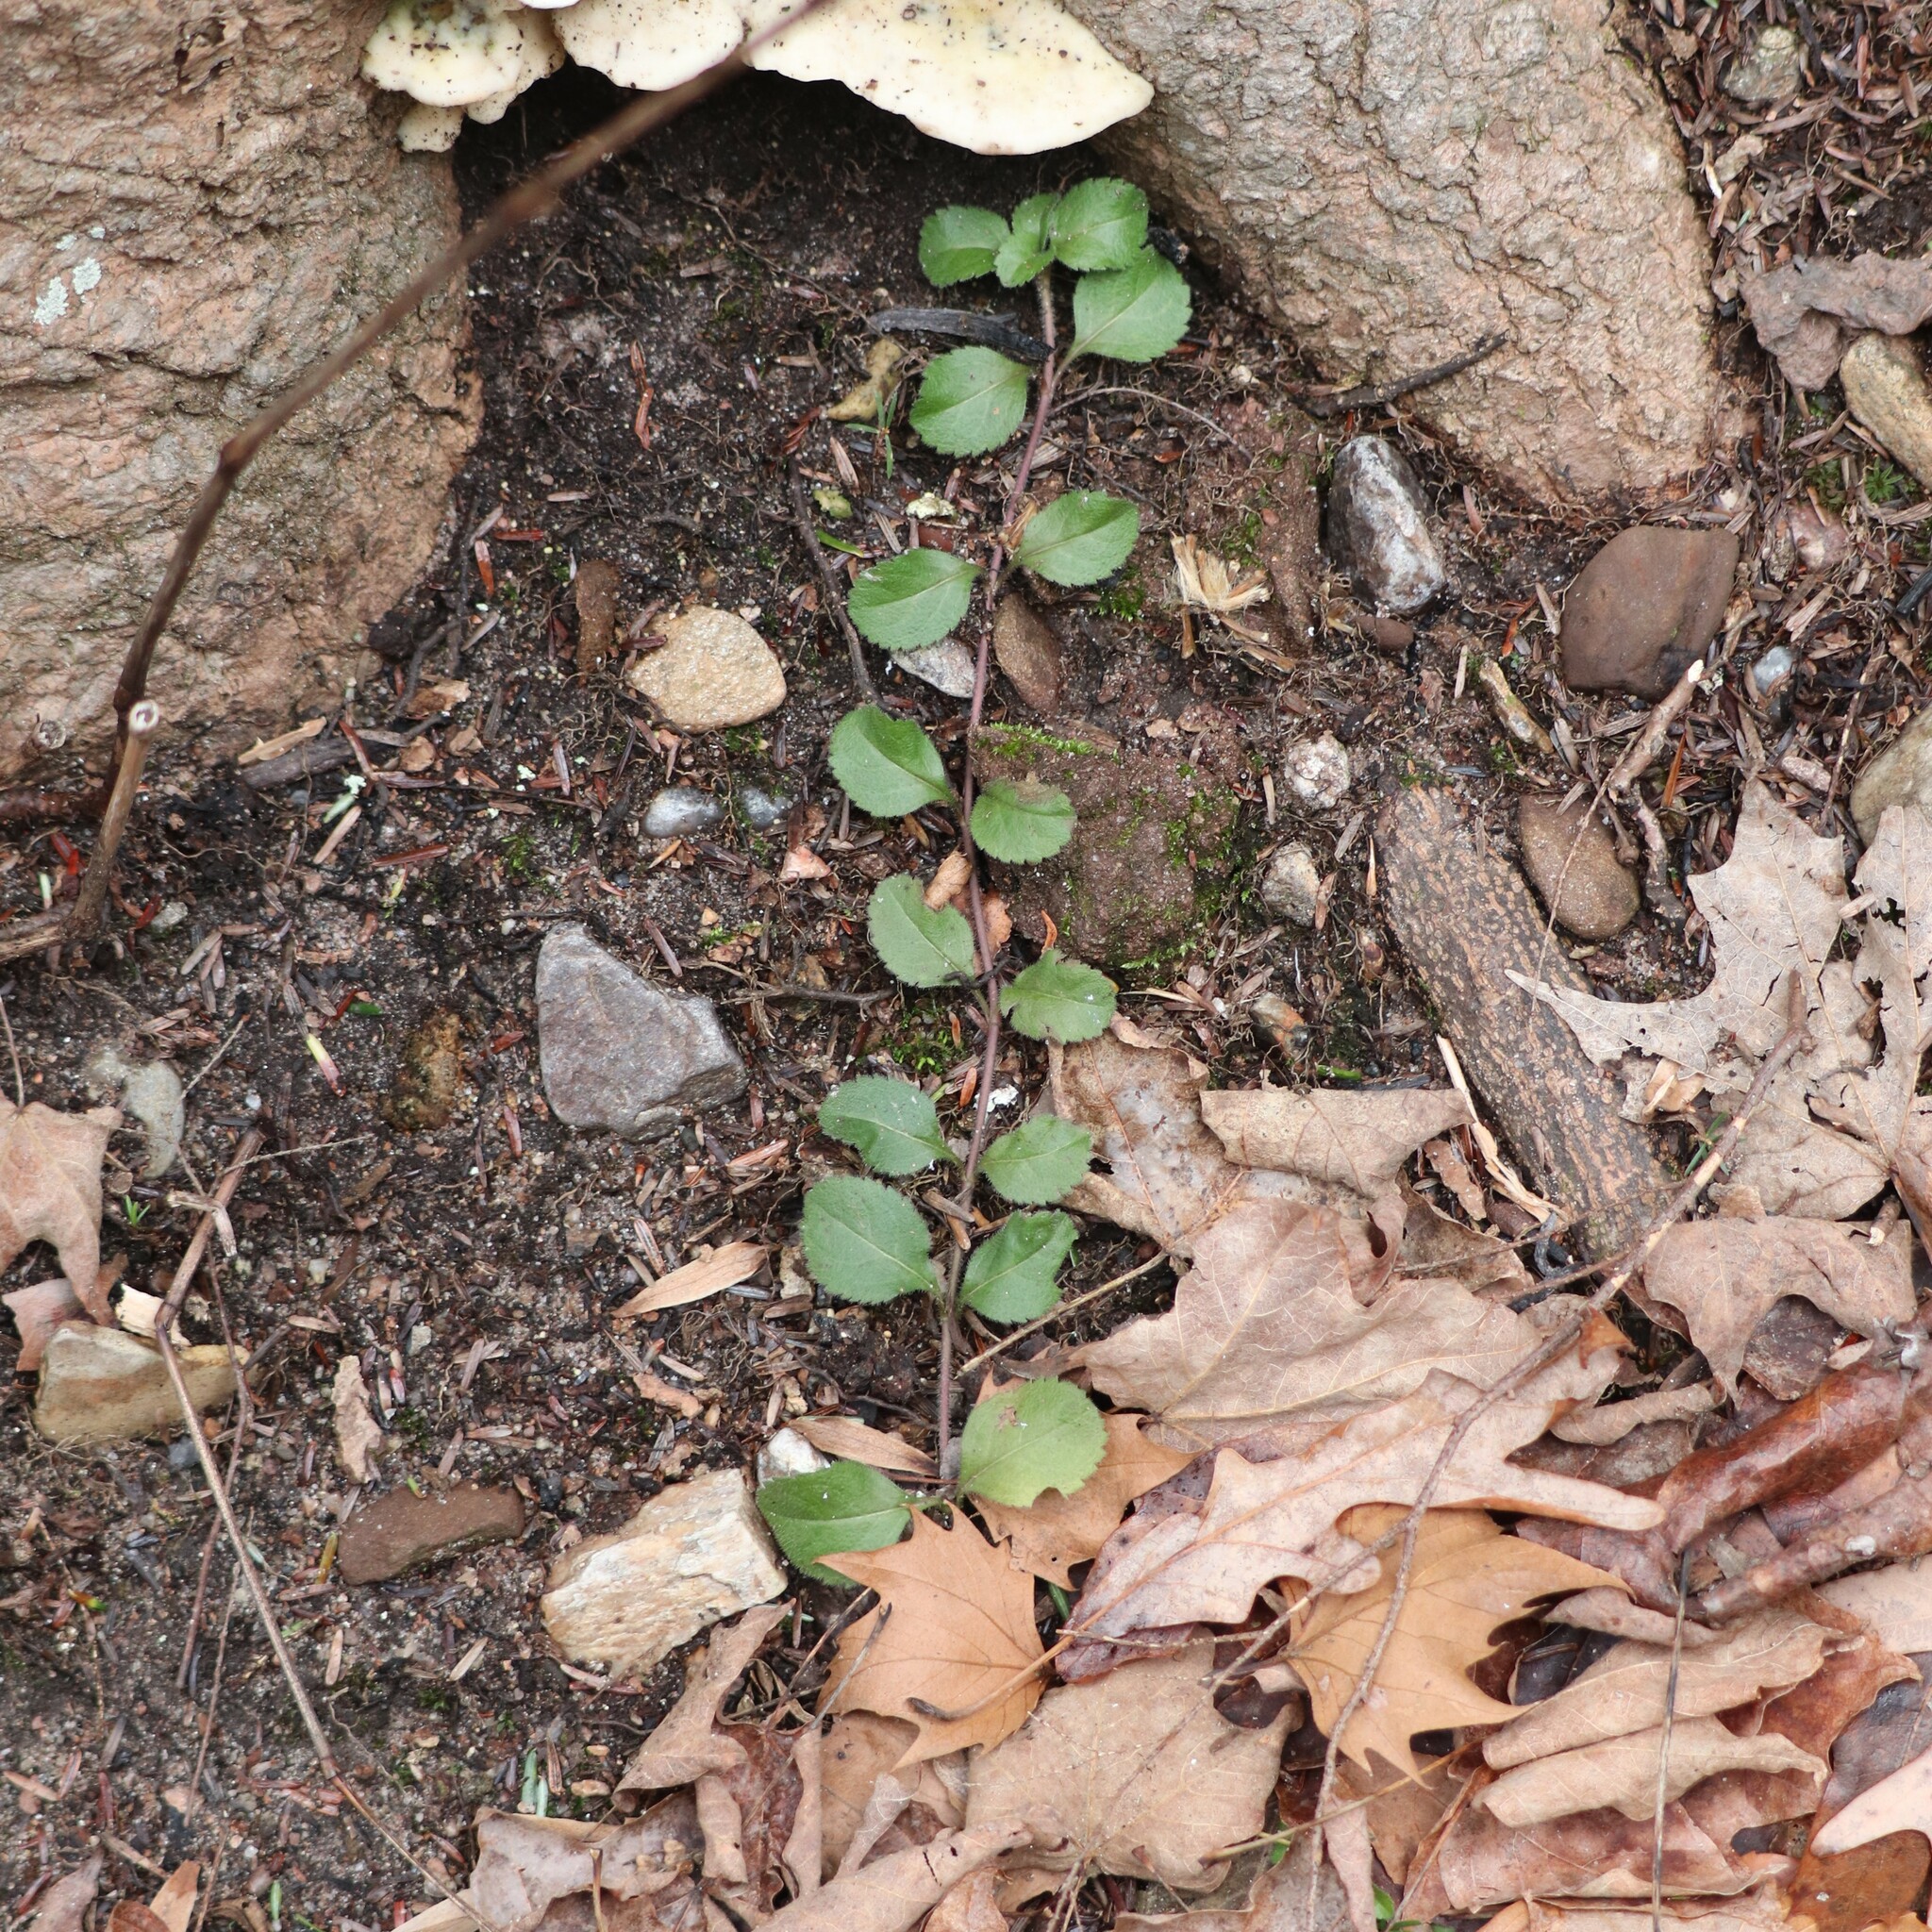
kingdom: Plantae
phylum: Tracheophyta
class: Magnoliopsida
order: Lamiales
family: Plantaginaceae
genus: Veronica
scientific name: Veronica officinalis
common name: Common speedwell
